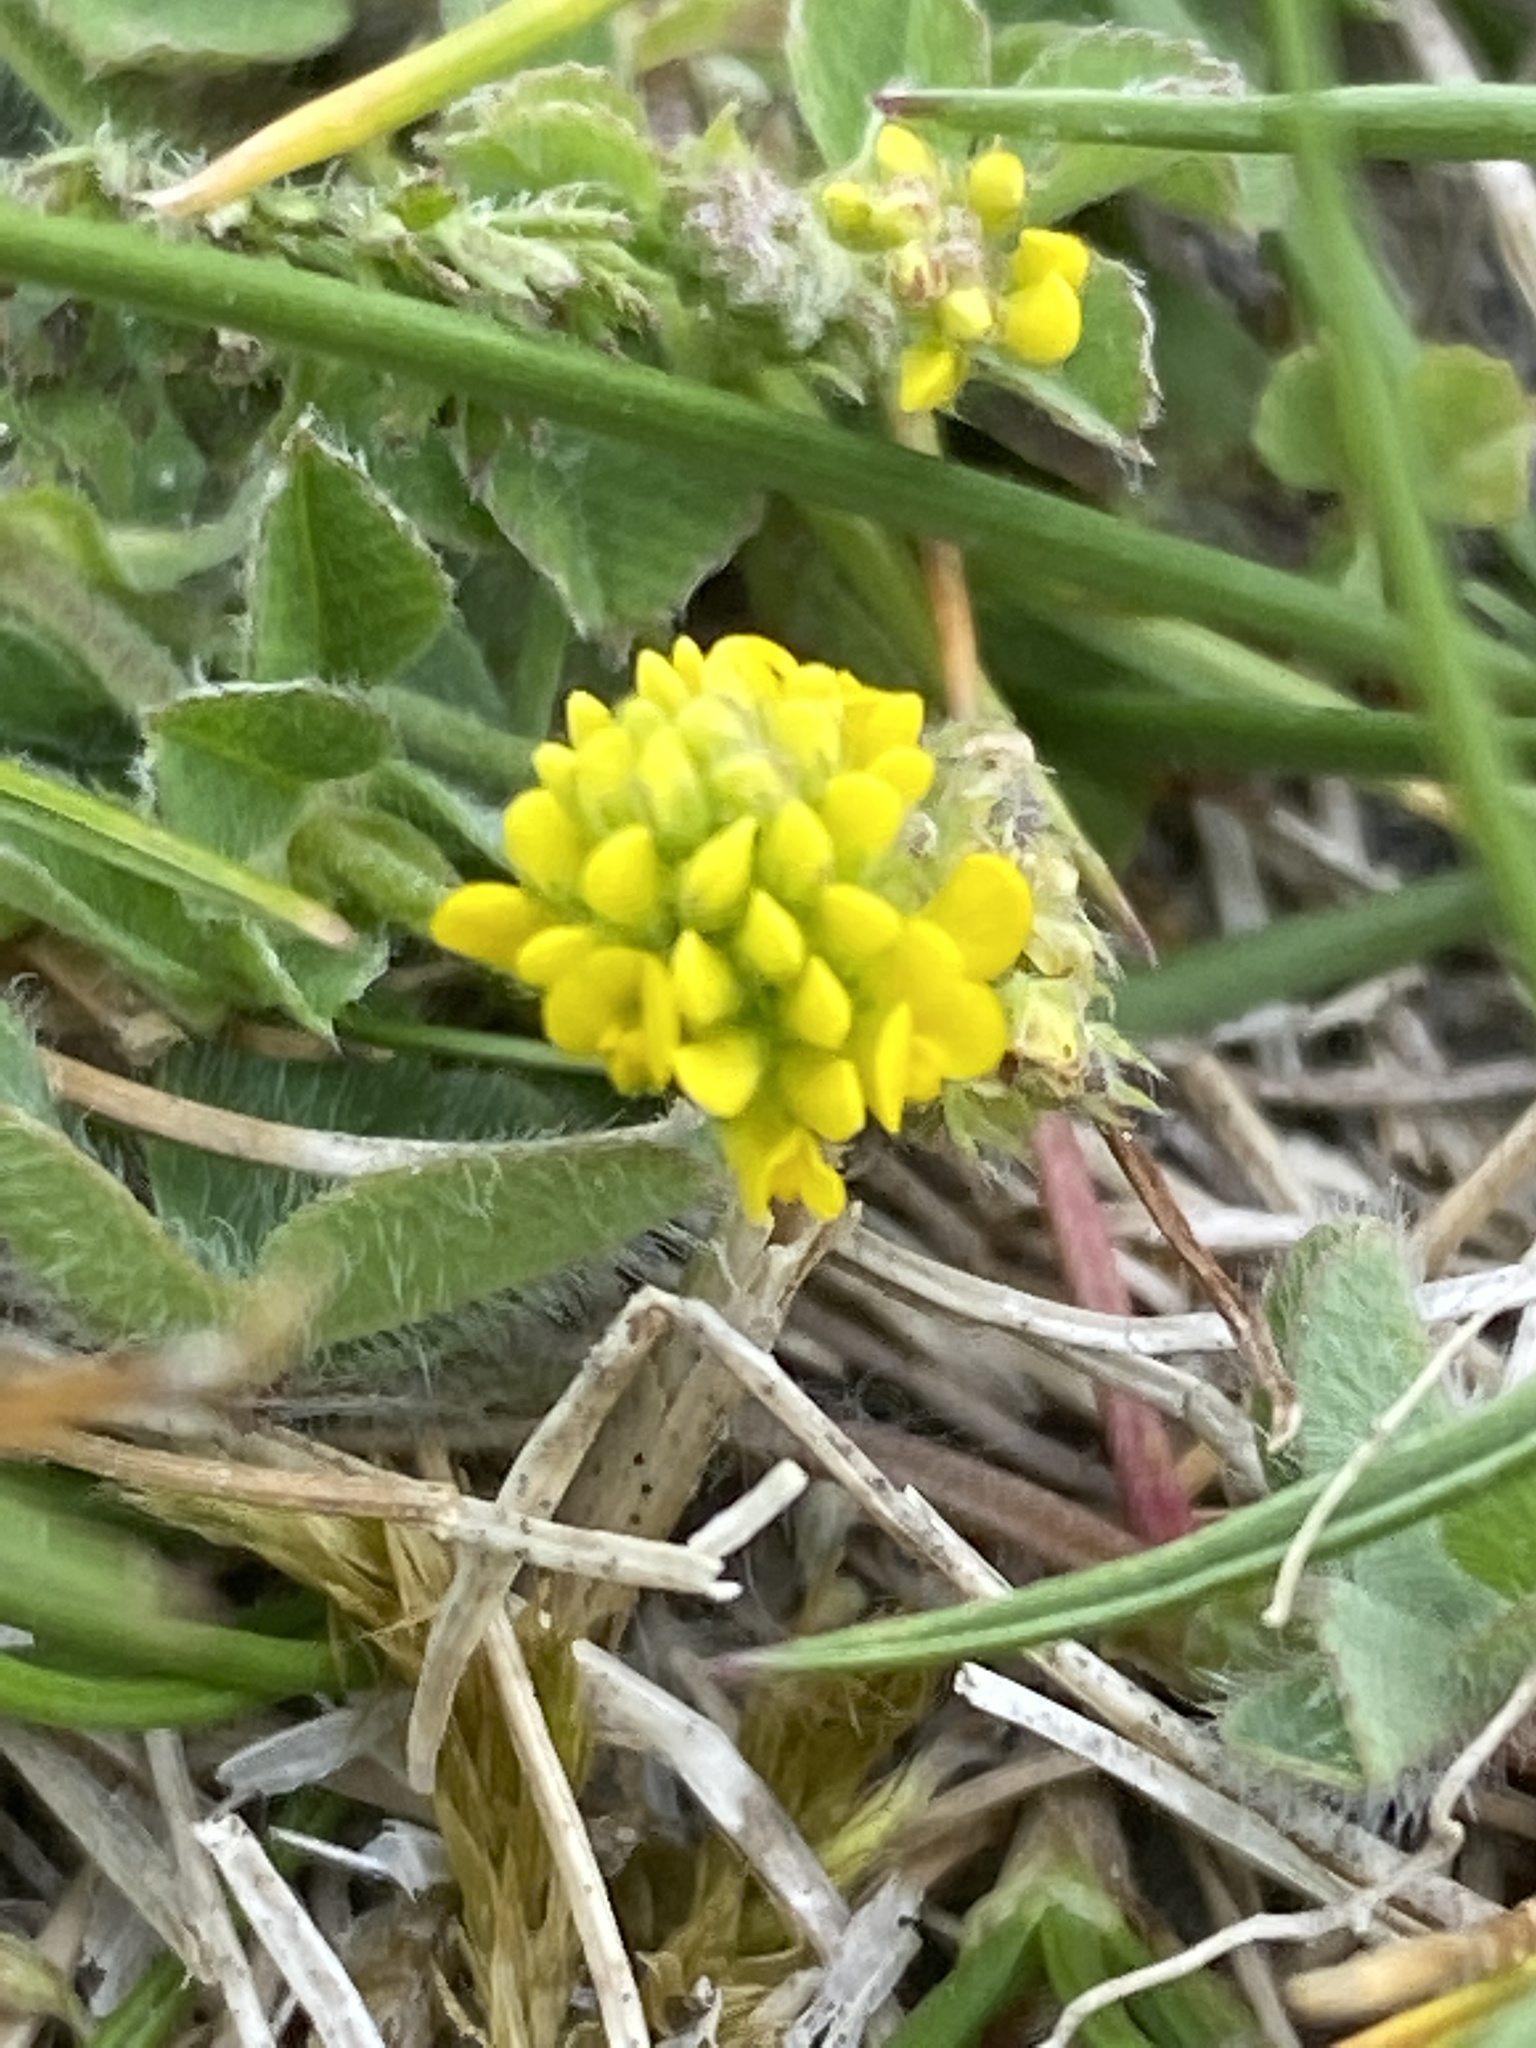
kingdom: Plantae
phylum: Tracheophyta
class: Magnoliopsida
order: Fabales
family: Fabaceae
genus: Medicago
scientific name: Medicago lupulina
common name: Black medick
